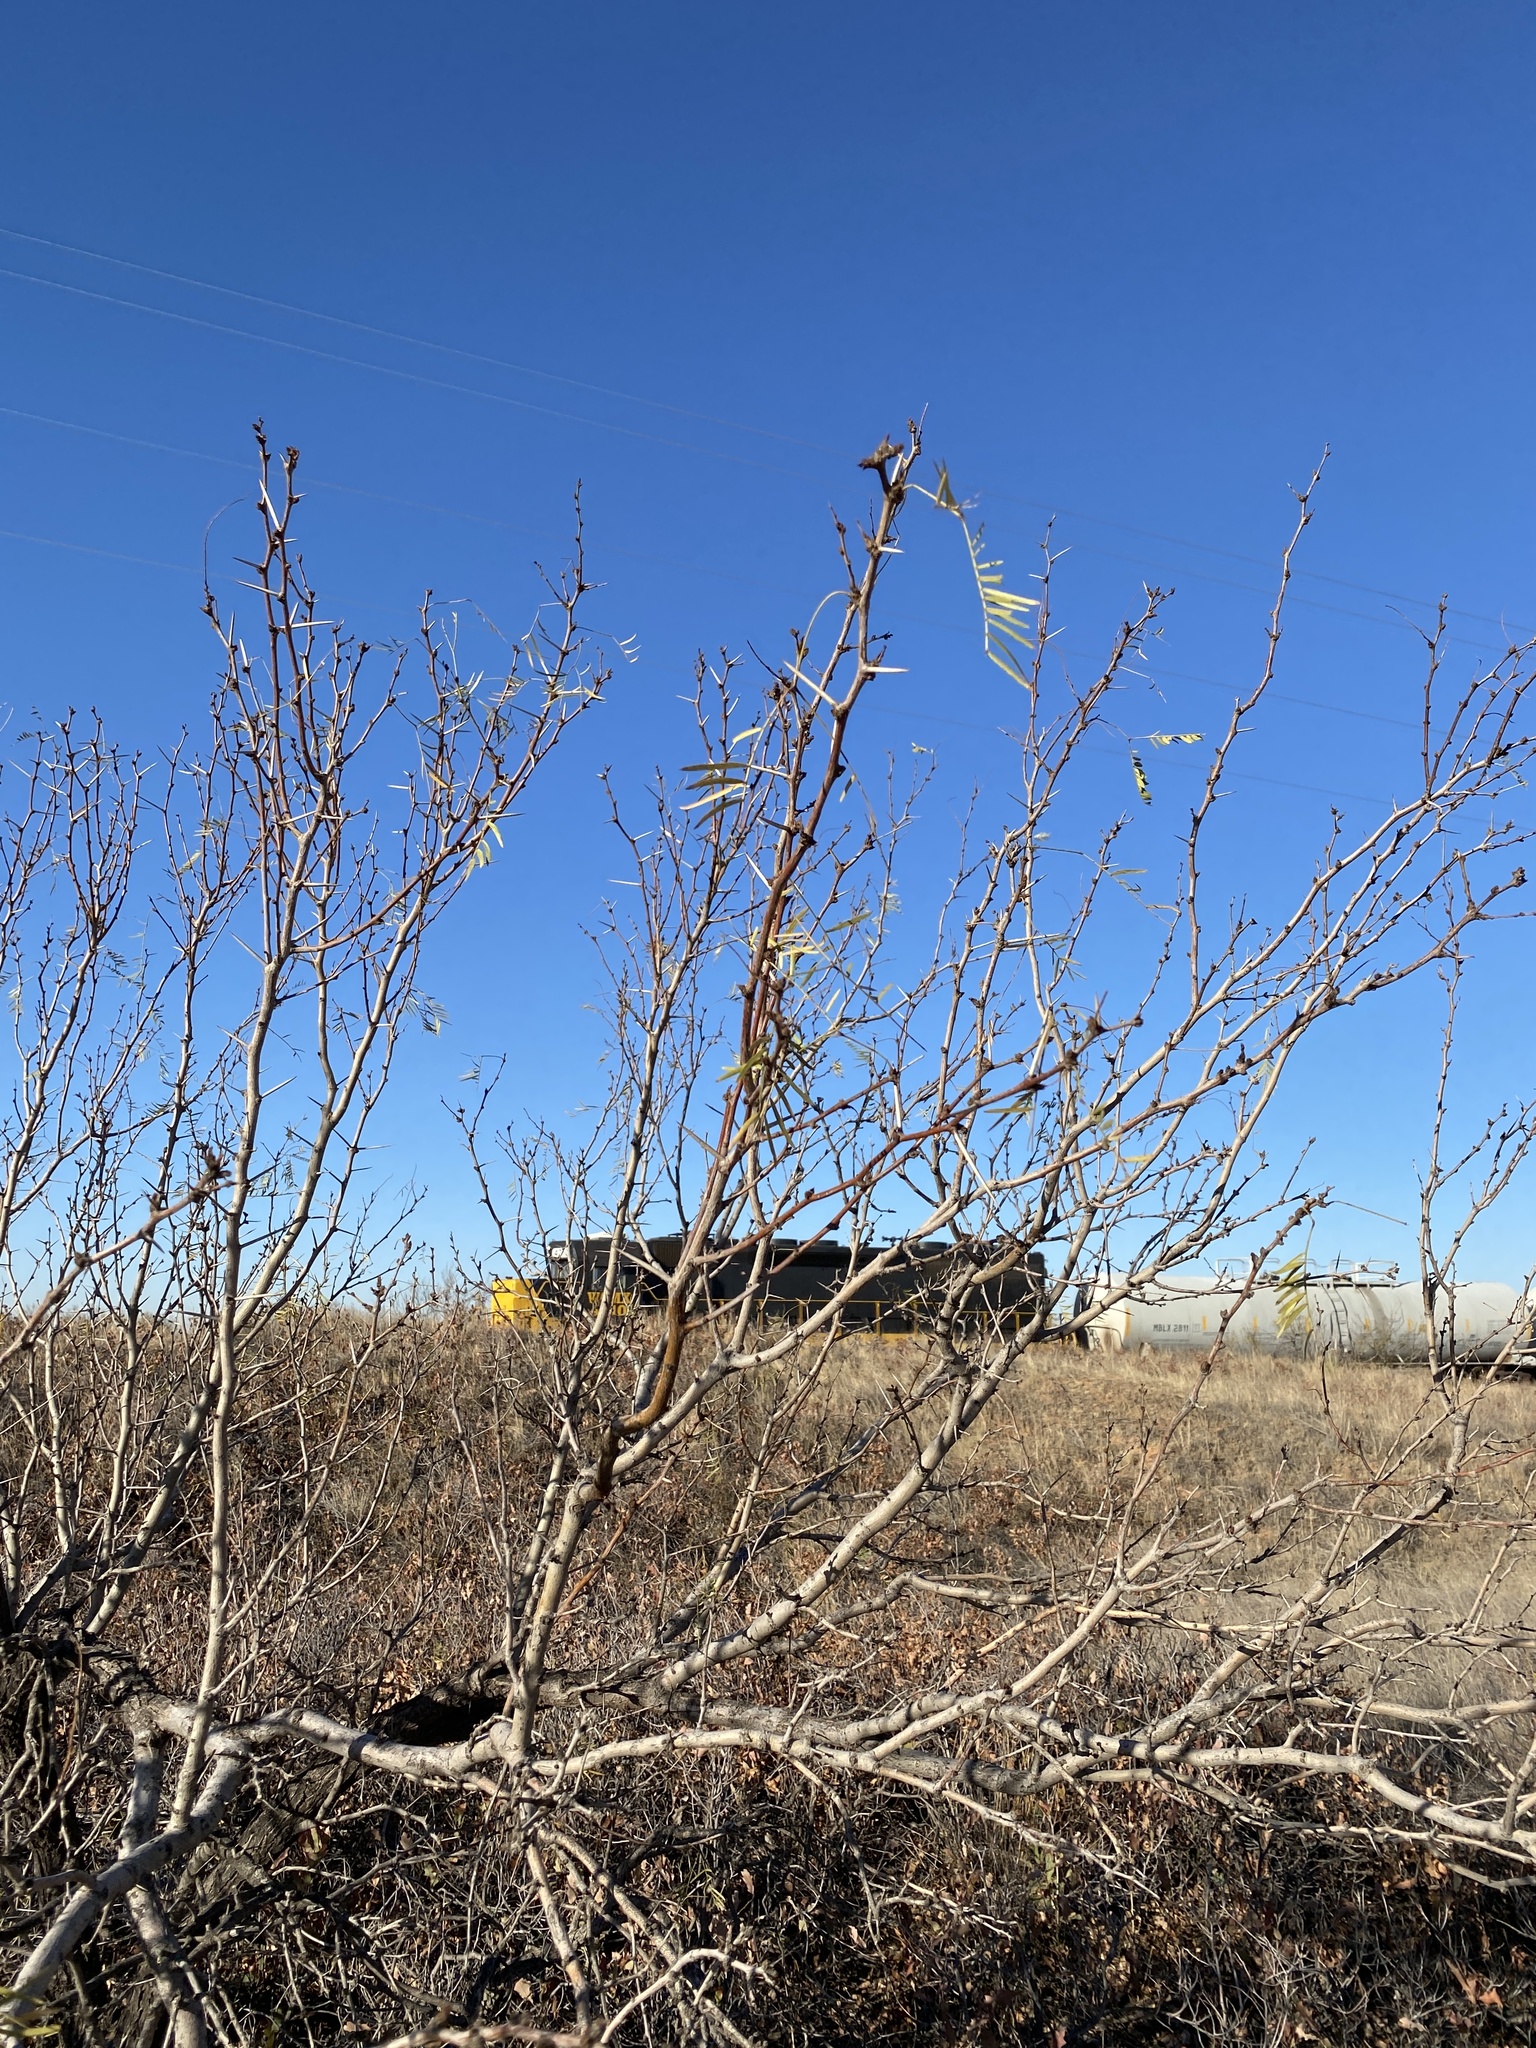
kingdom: Plantae
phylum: Tracheophyta
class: Magnoliopsida
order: Fabales
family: Fabaceae
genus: Prosopis
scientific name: Prosopis glandulosa
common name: Honey mesquite
